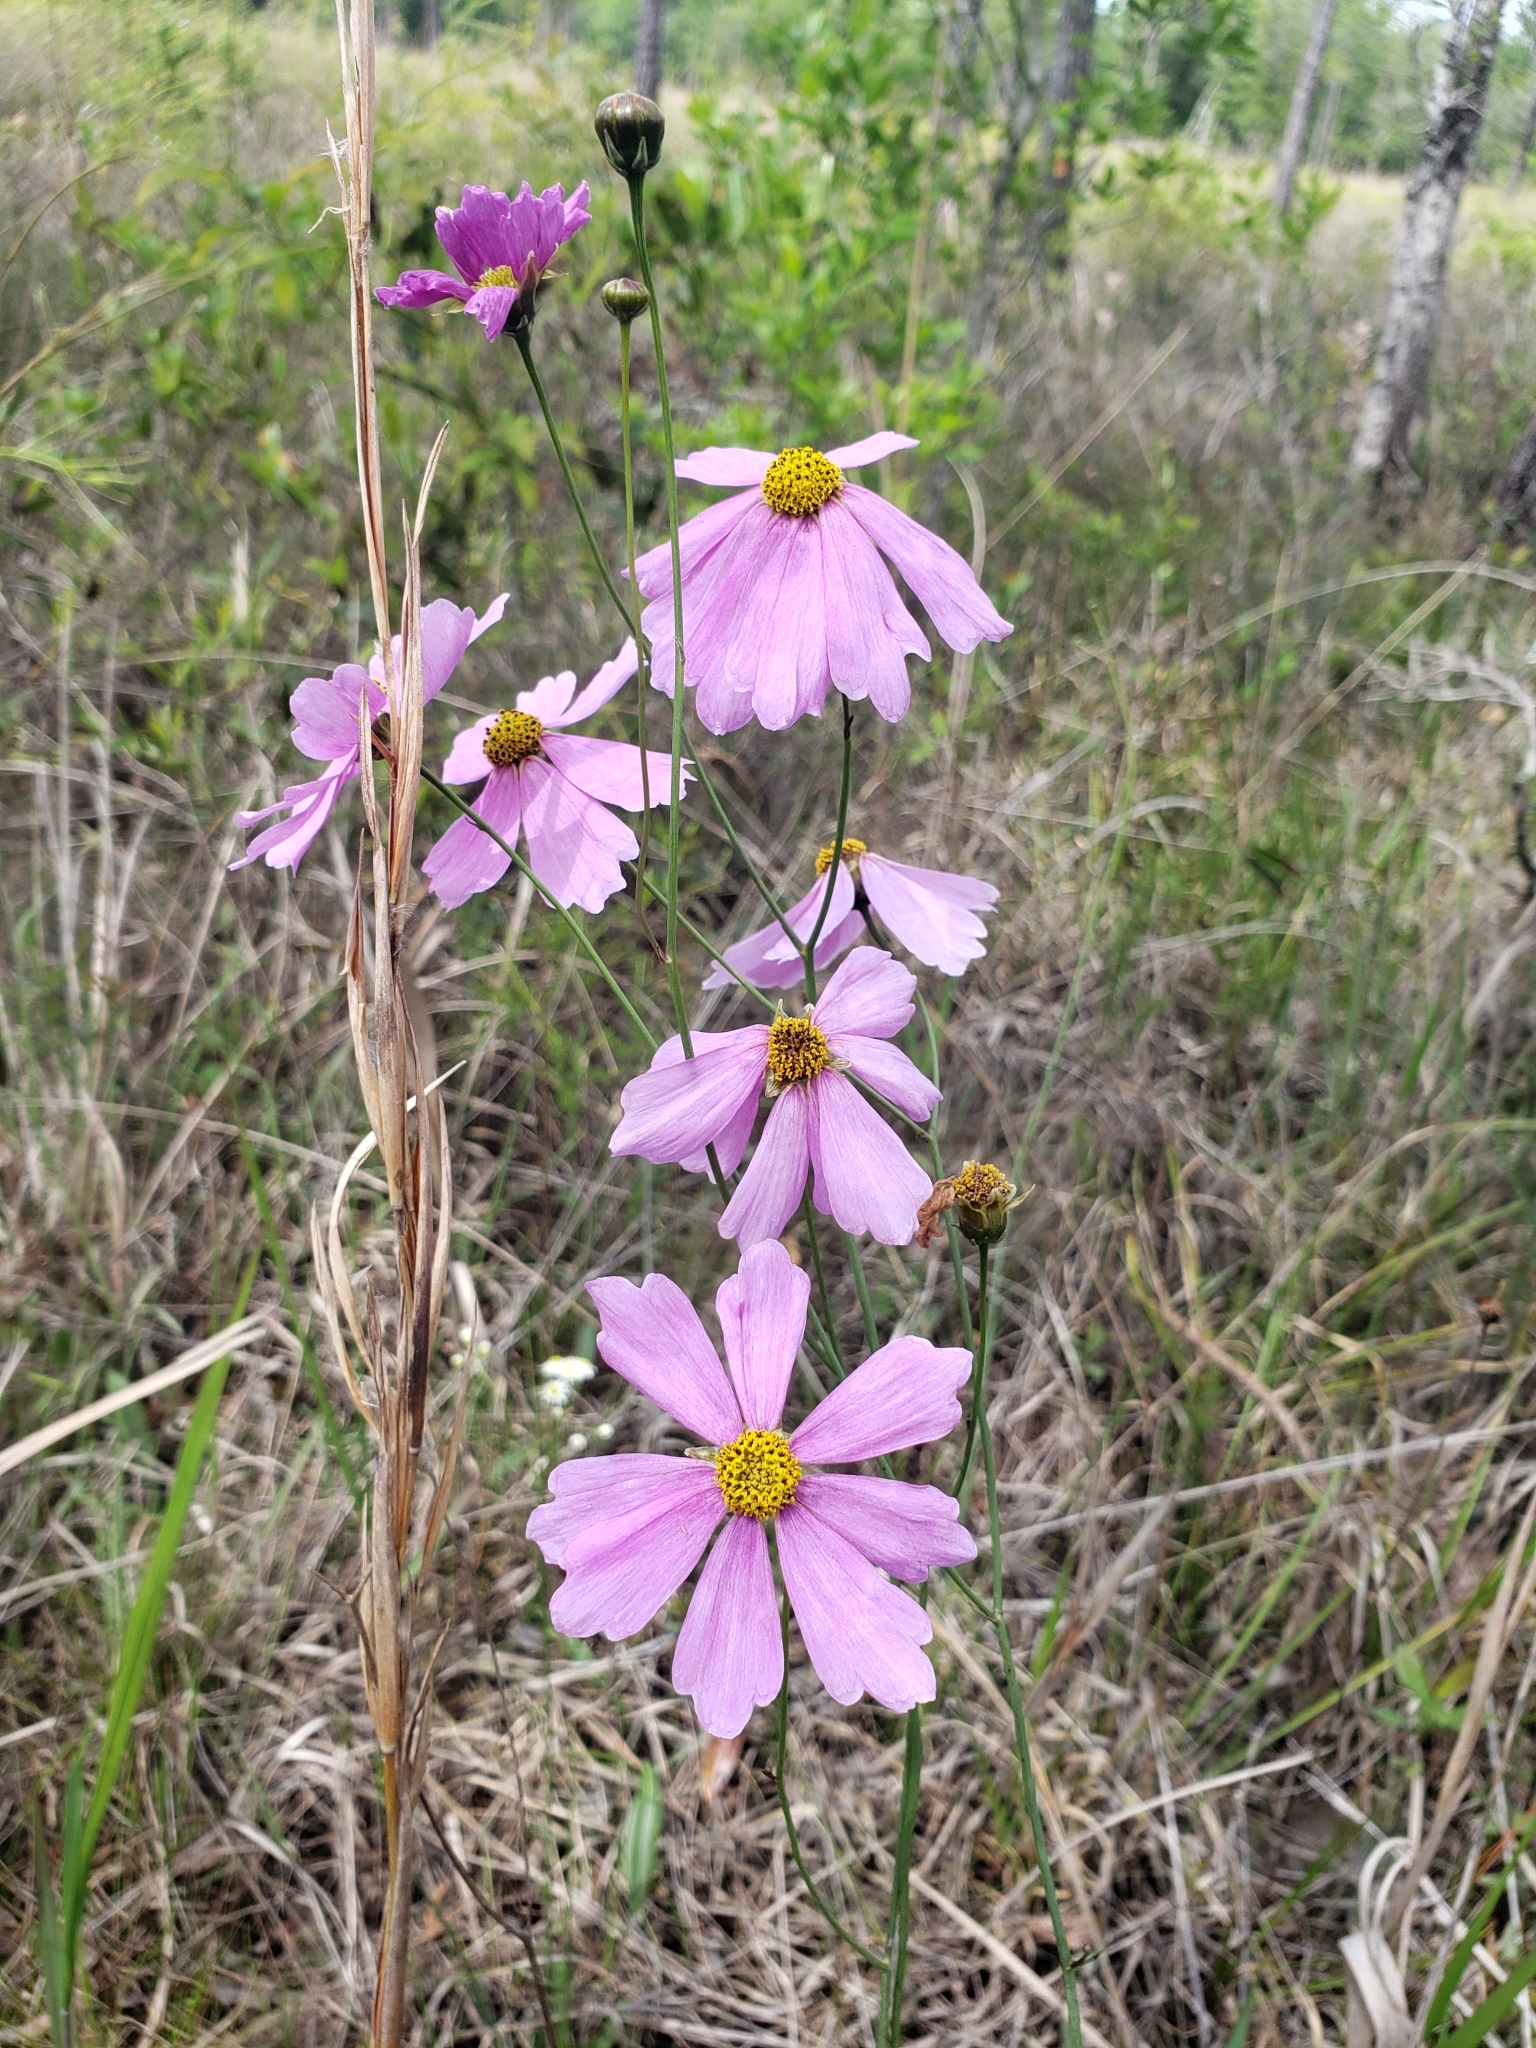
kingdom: Plantae
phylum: Tracheophyta
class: Magnoliopsida
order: Asterales
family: Asteraceae
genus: Coreopsis
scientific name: Coreopsis nudata
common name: Purple tickseed
